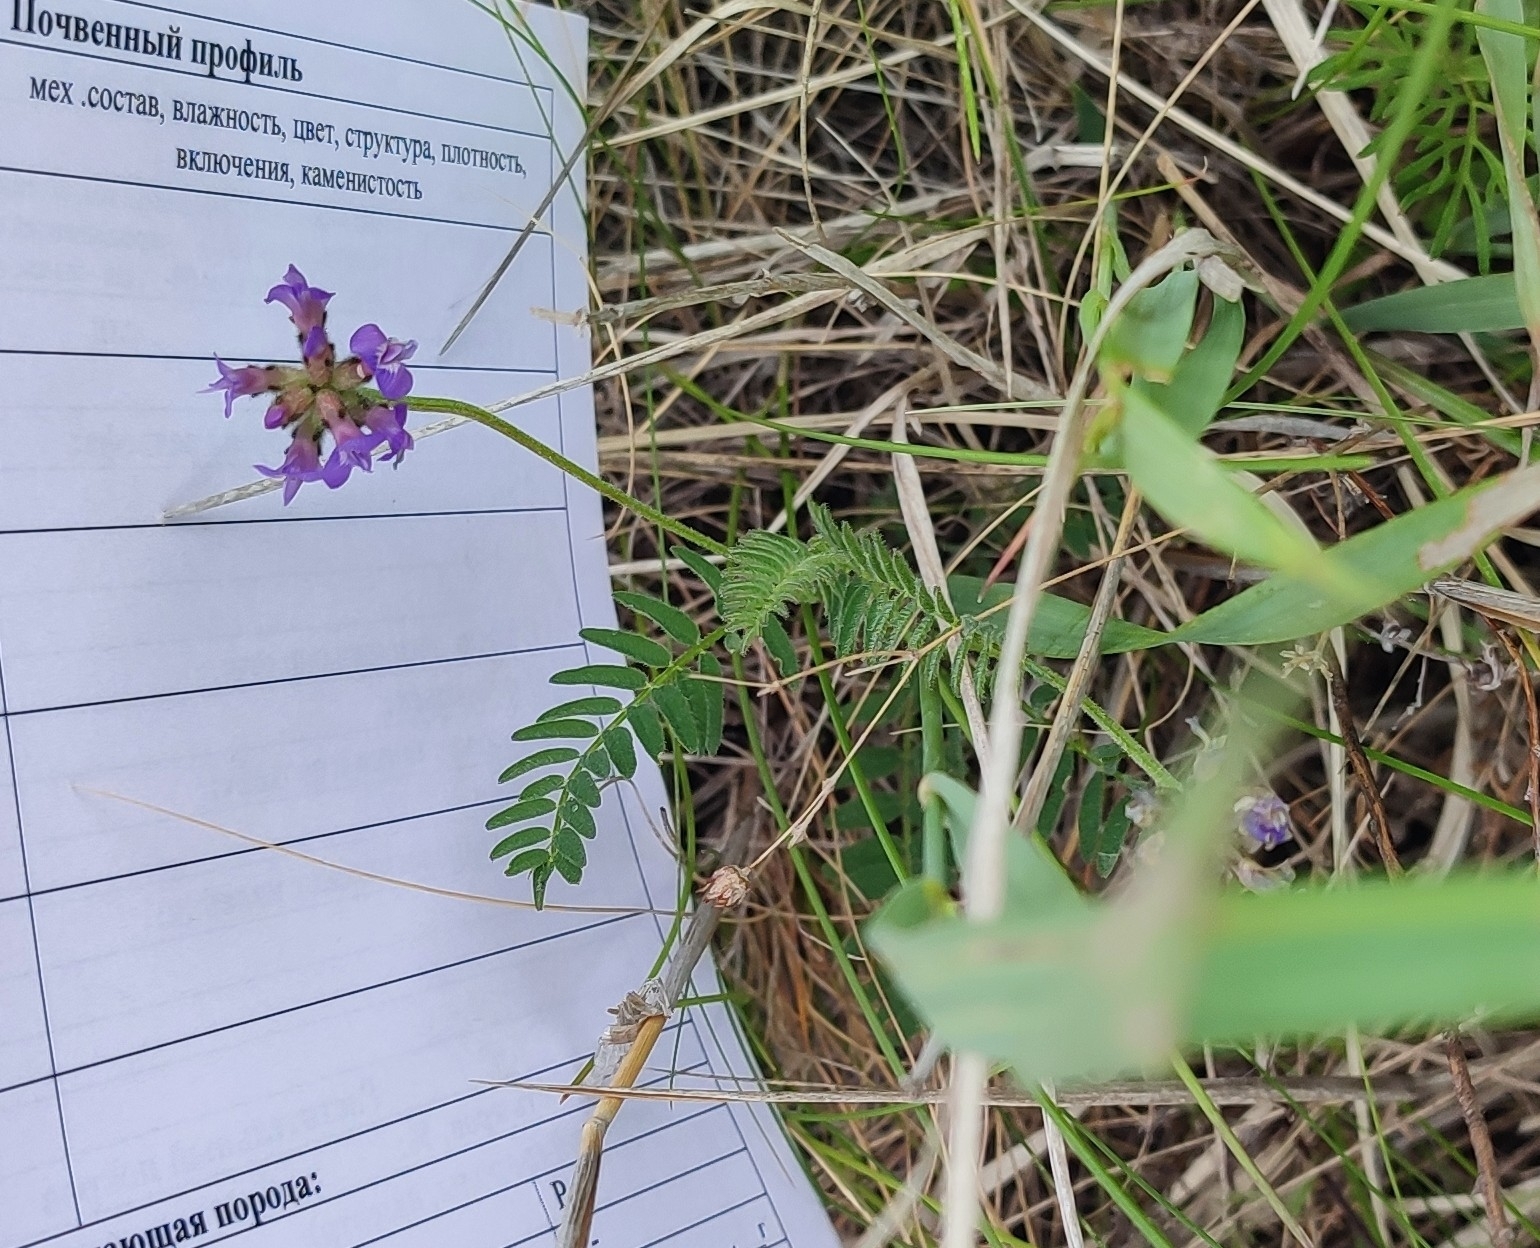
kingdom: Plantae
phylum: Tracheophyta
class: Magnoliopsida
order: Fabales
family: Fabaceae
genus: Astragalus
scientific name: Astragalus danicus
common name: Purple milk-vetch
